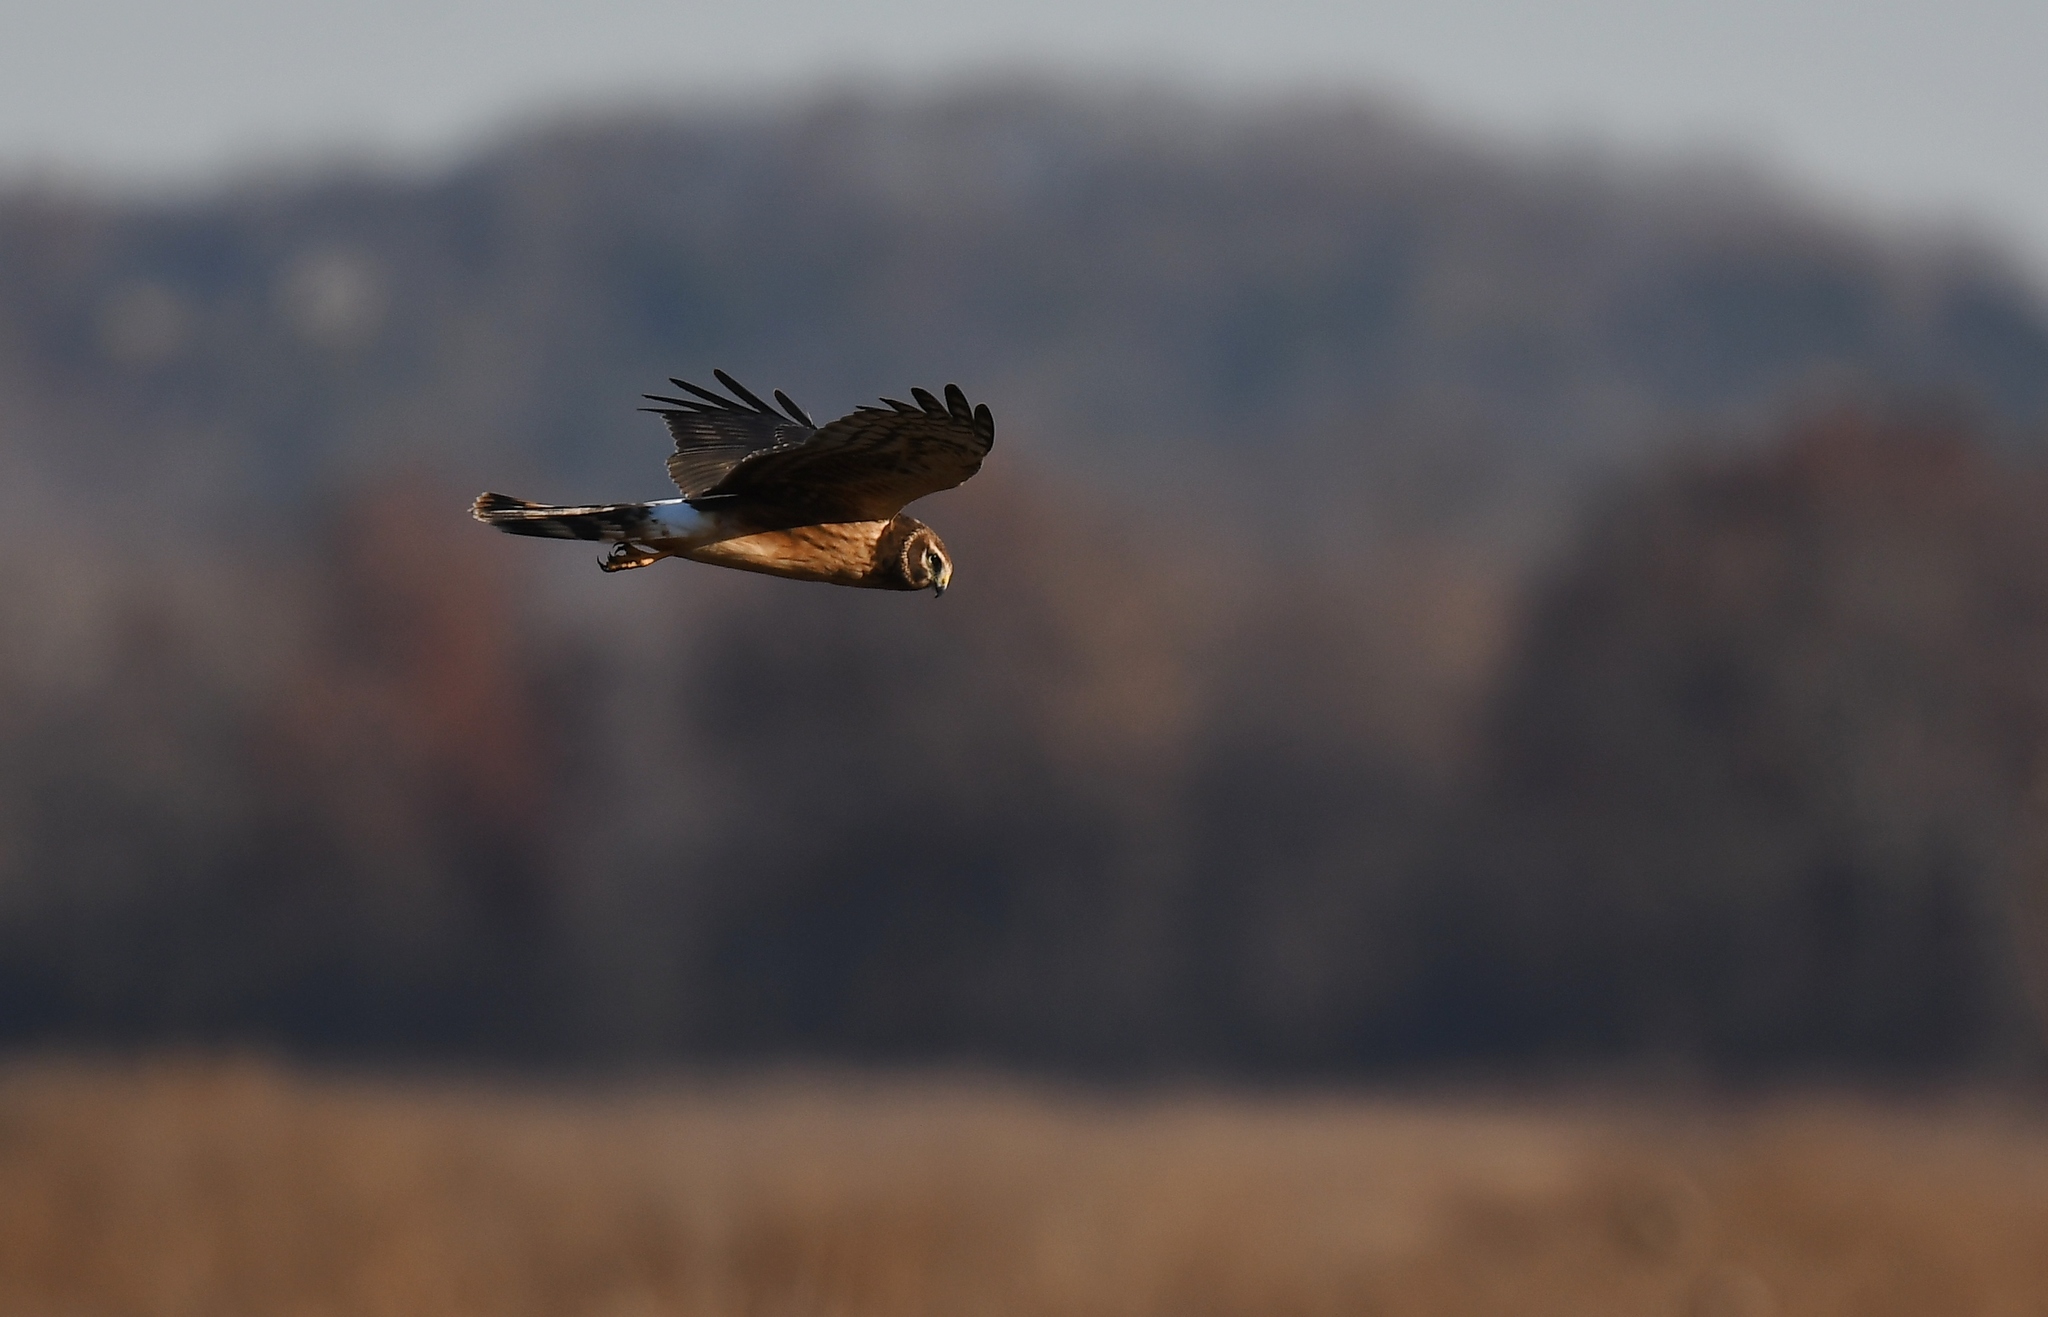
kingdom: Animalia
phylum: Chordata
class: Aves
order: Accipitriformes
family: Accipitridae
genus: Circus
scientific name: Circus cyaneus
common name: Hen harrier
